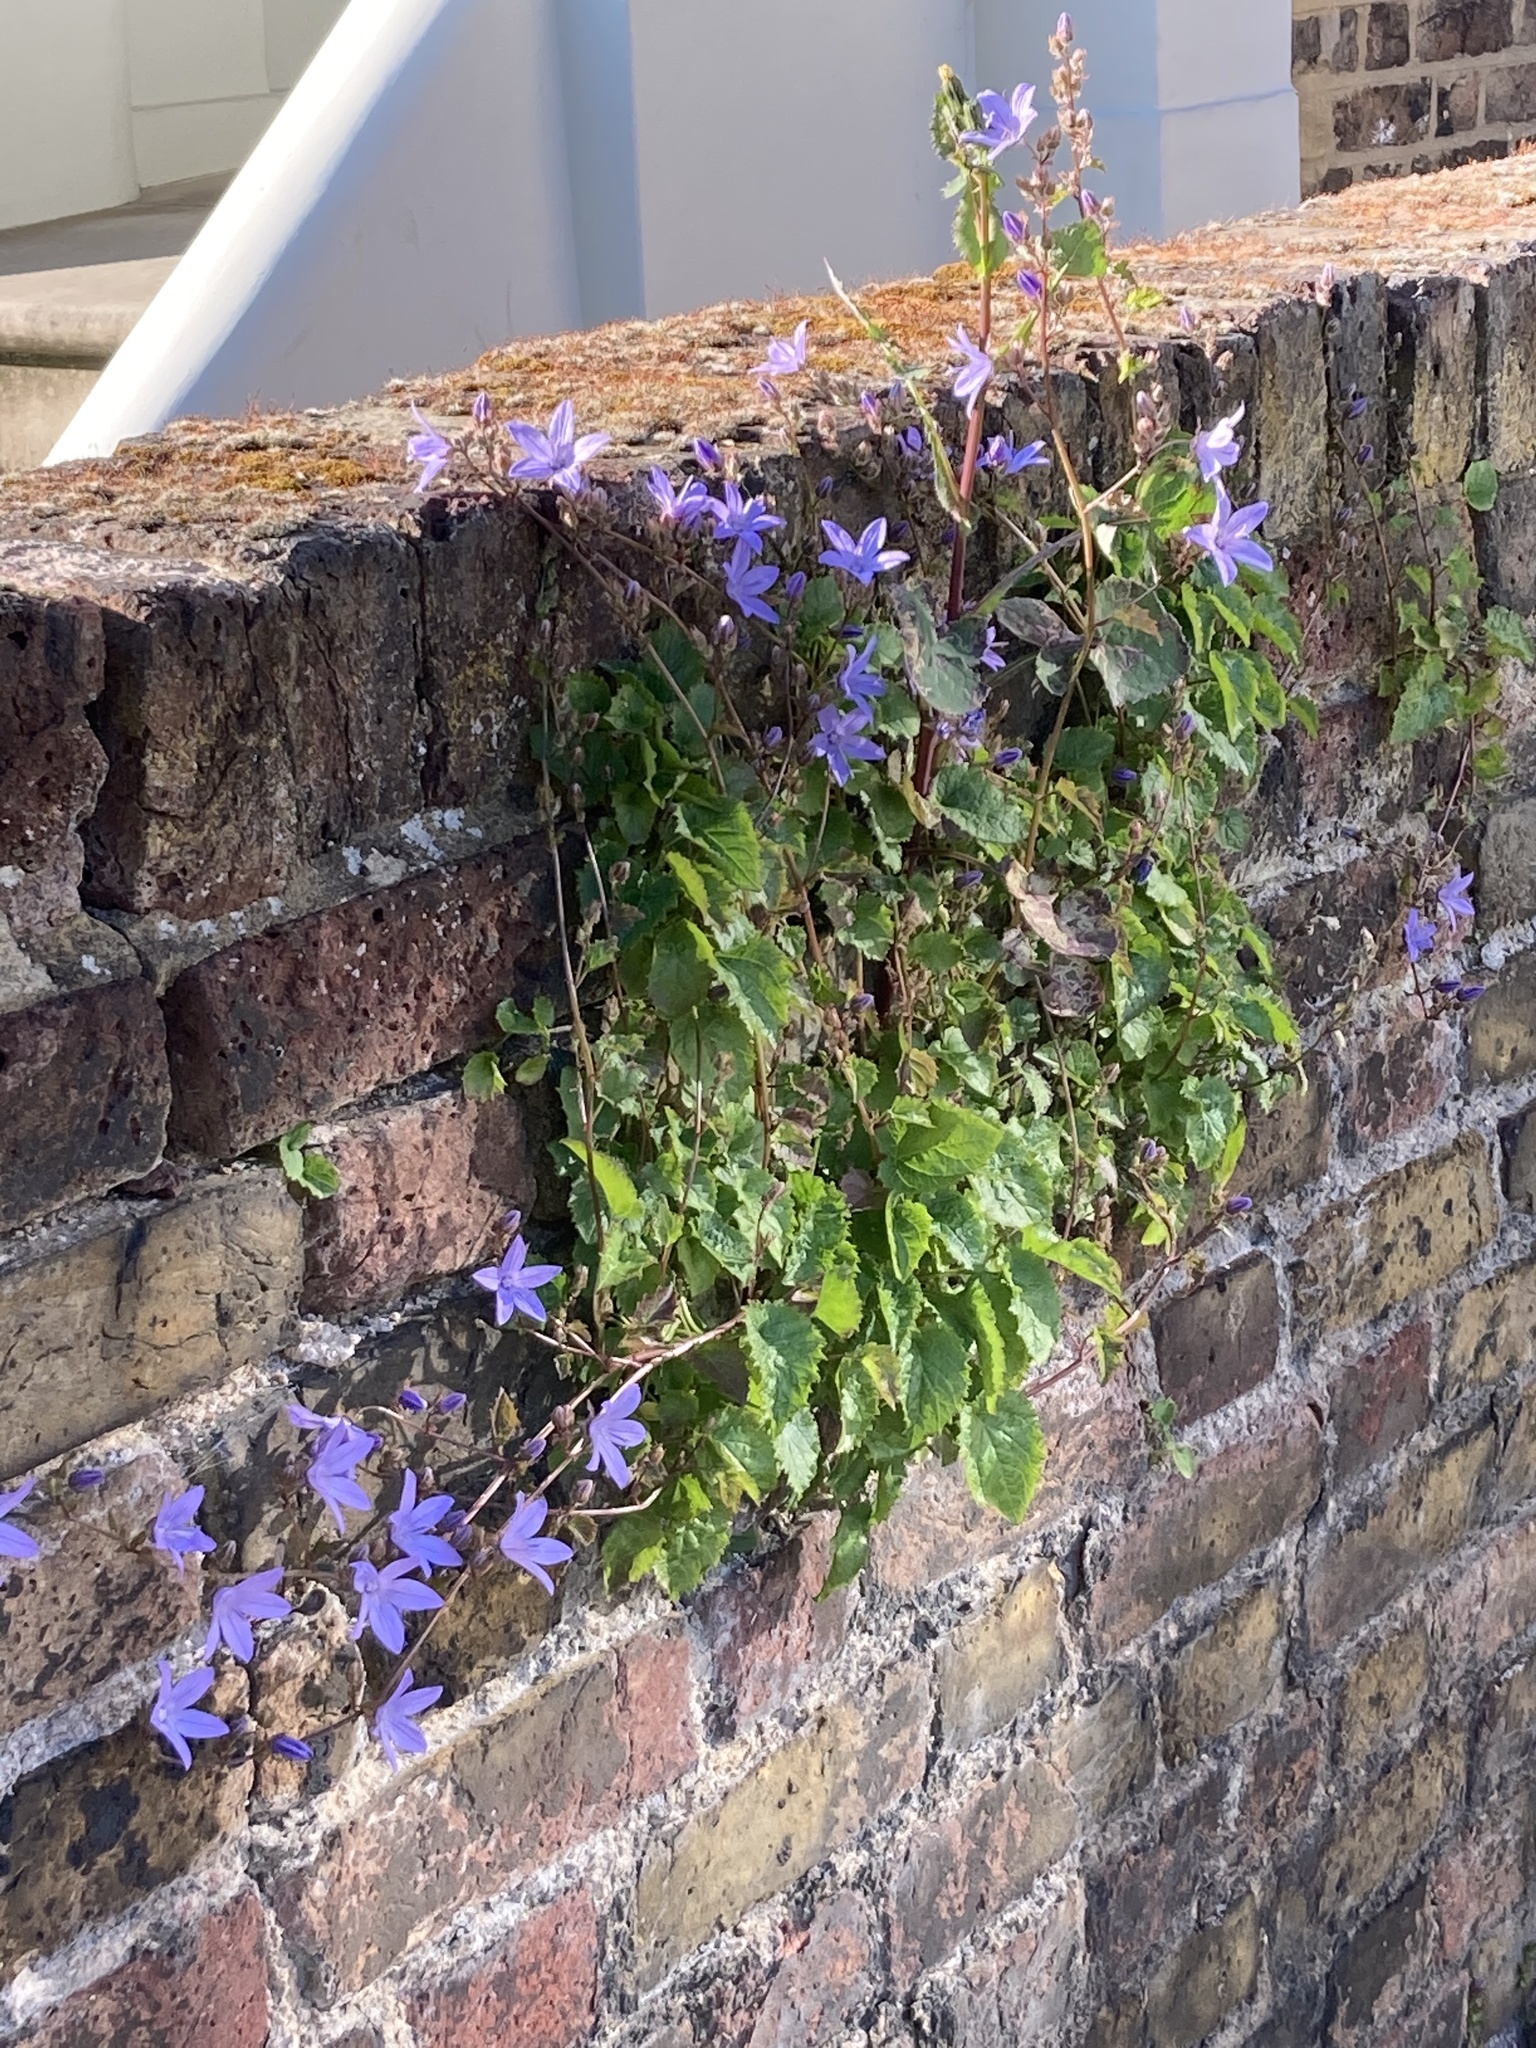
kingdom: Plantae
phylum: Tracheophyta
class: Magnoliopsida
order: Asterales
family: Campanulaceae
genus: Campanula
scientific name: Campanula poscharskyana
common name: Trailing bellflower
